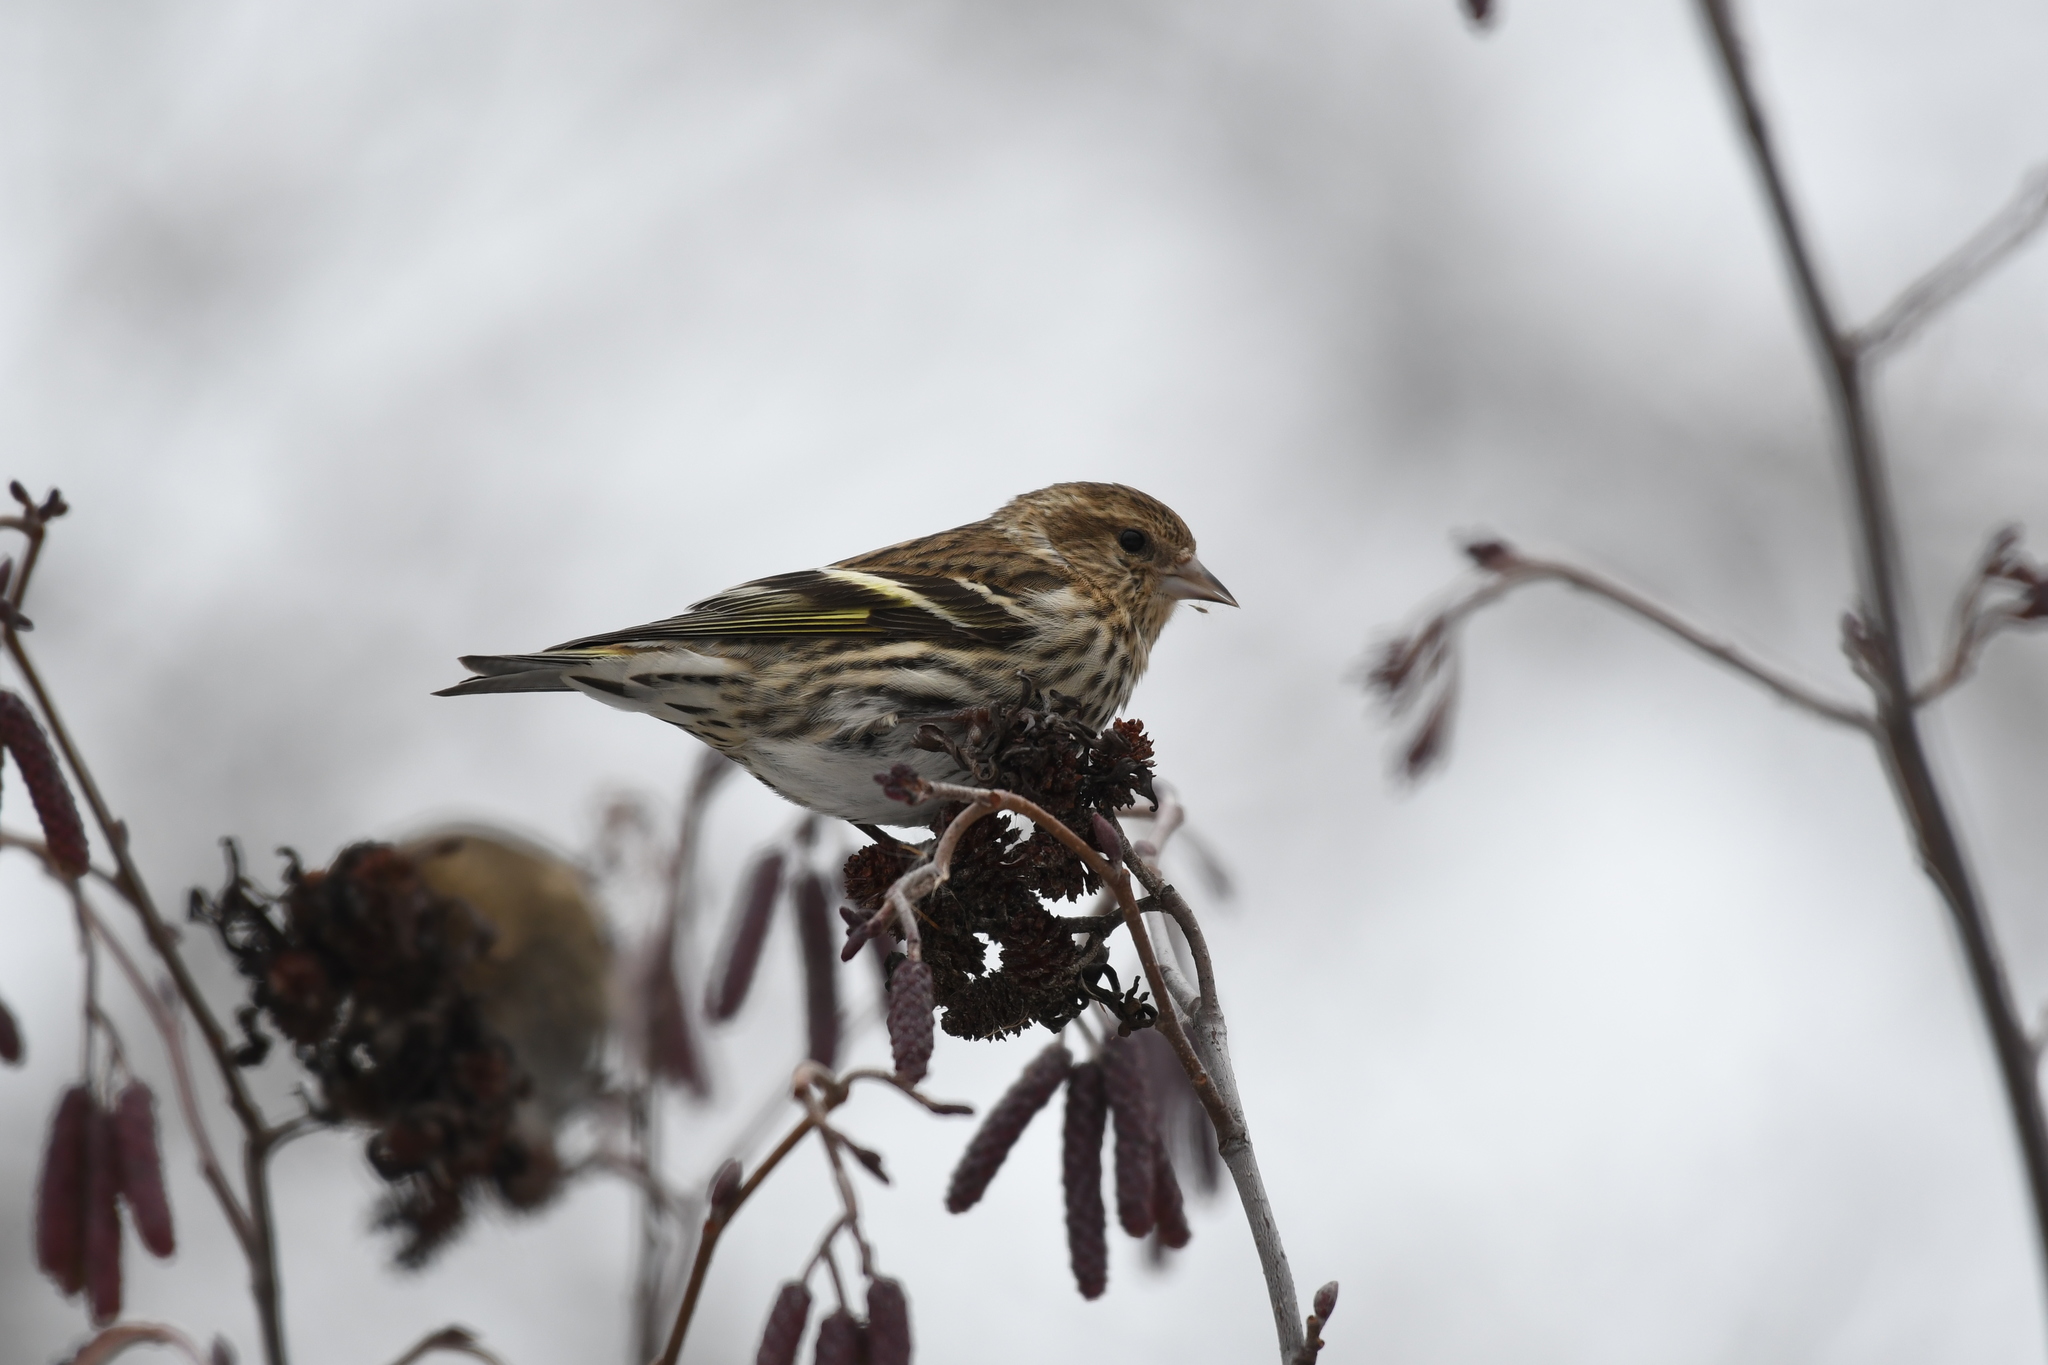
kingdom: Animalia
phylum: Chordata
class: Aves
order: Passeriformes
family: Fringillidae
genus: Spinus
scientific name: Spinus pinus
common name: Pine siskin
